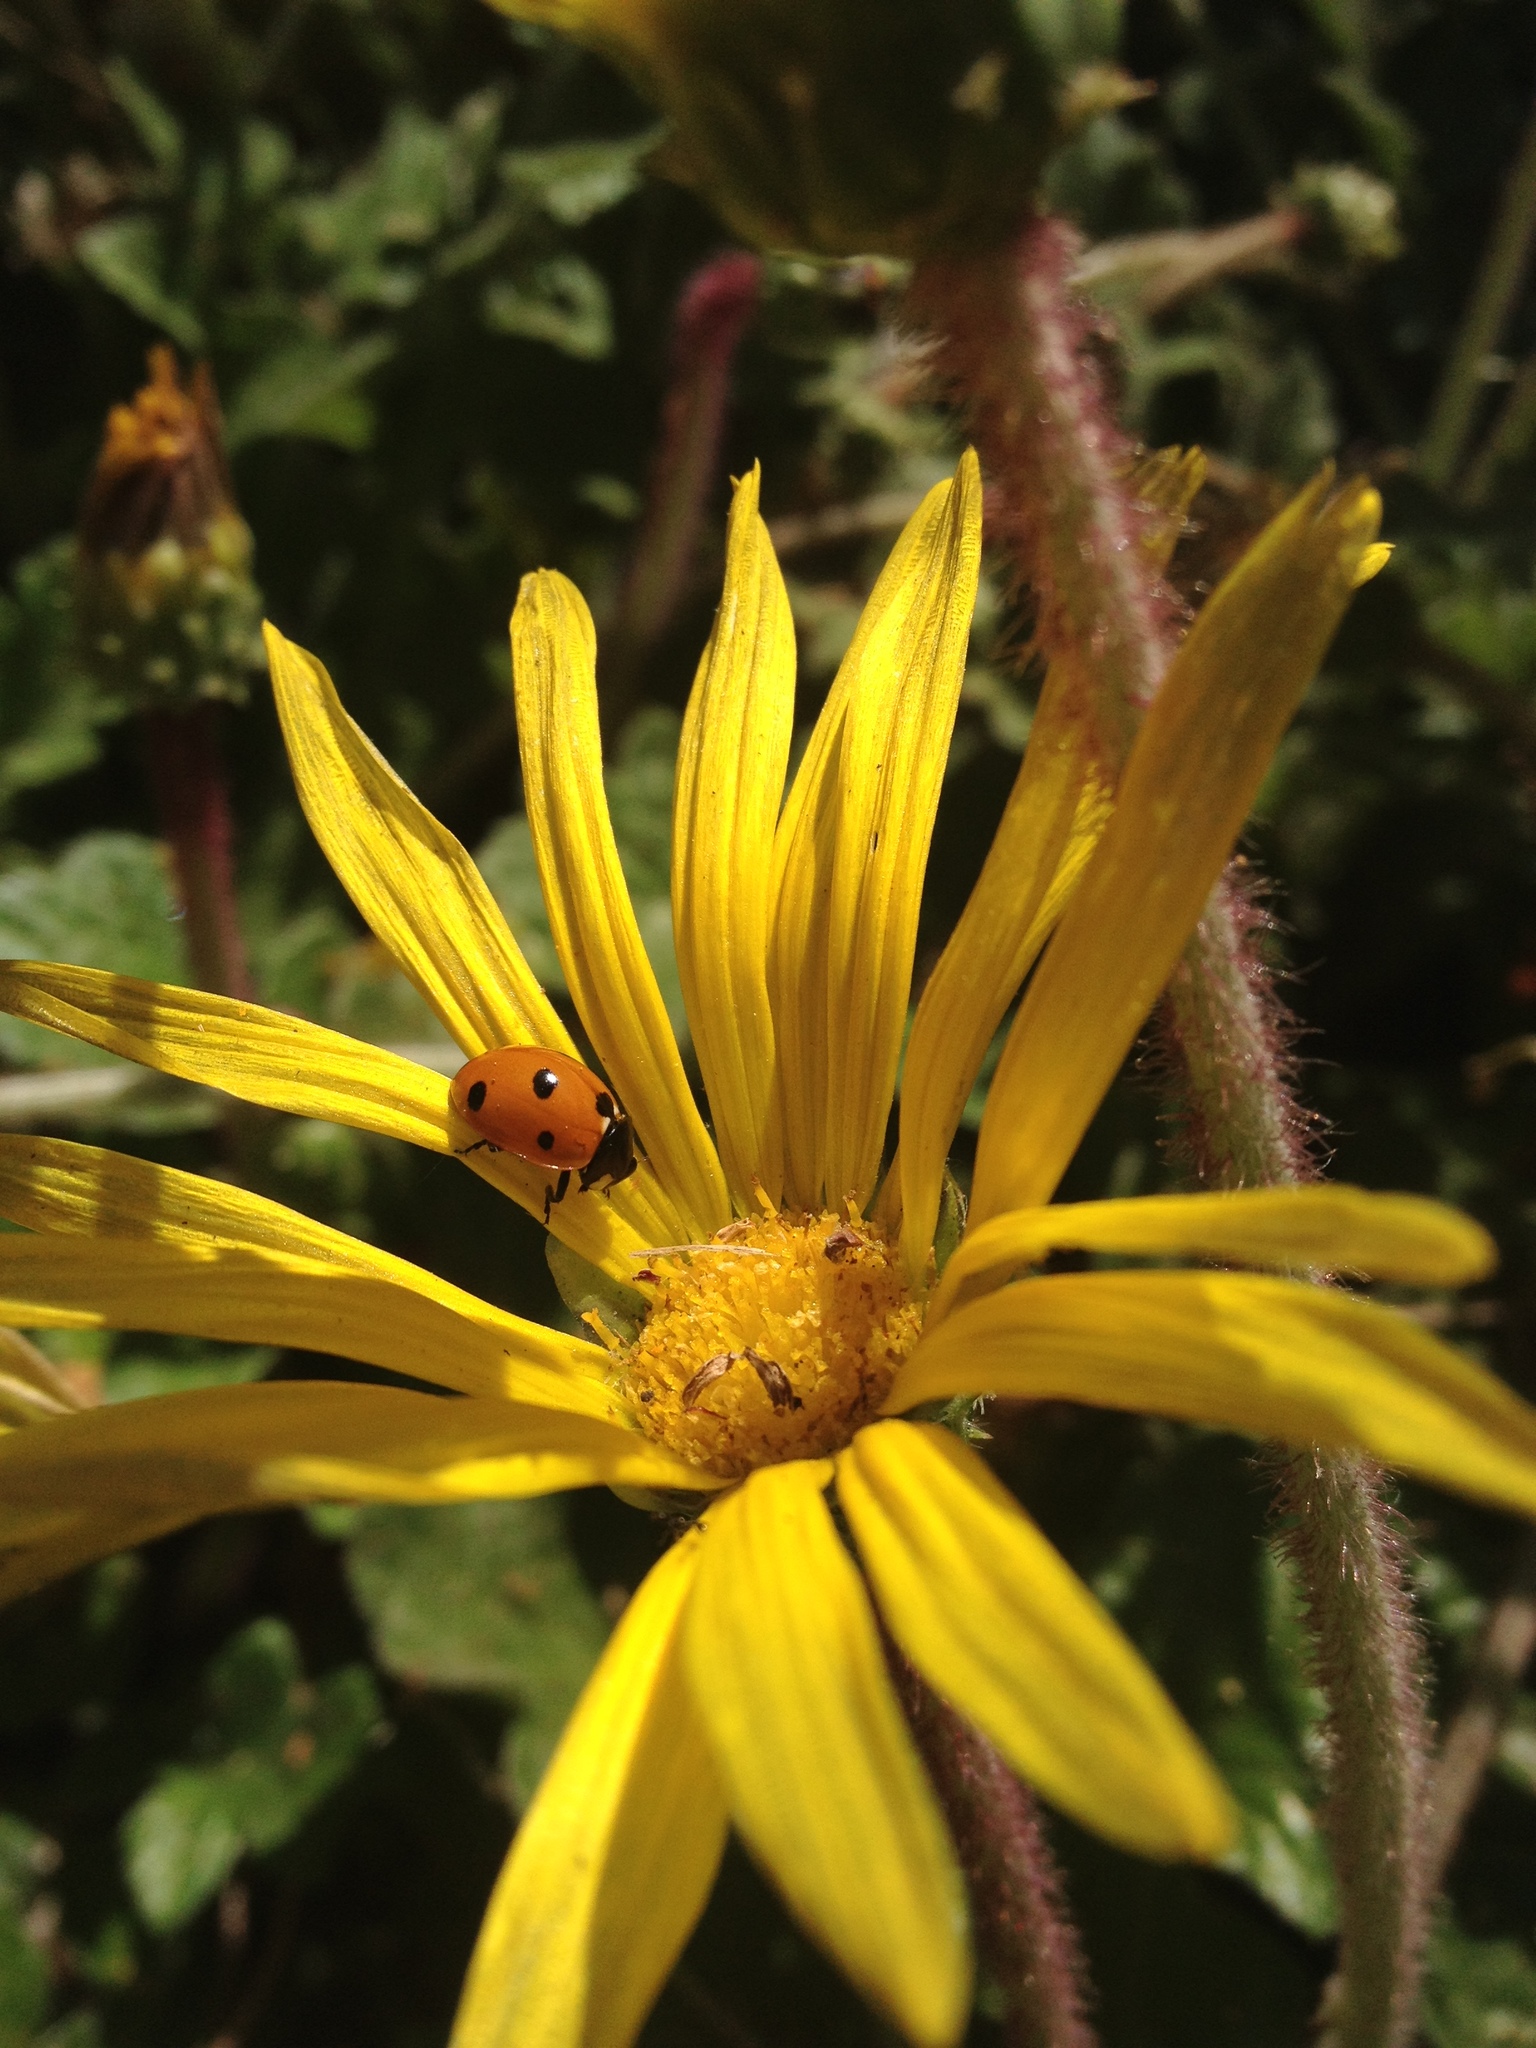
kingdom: Animalia
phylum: Arthropoda
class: Insecta
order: Coleoptera
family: Coccinellidae
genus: Coccinella
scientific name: Coccinella septempunctata
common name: Sevenspotted lady beetle
